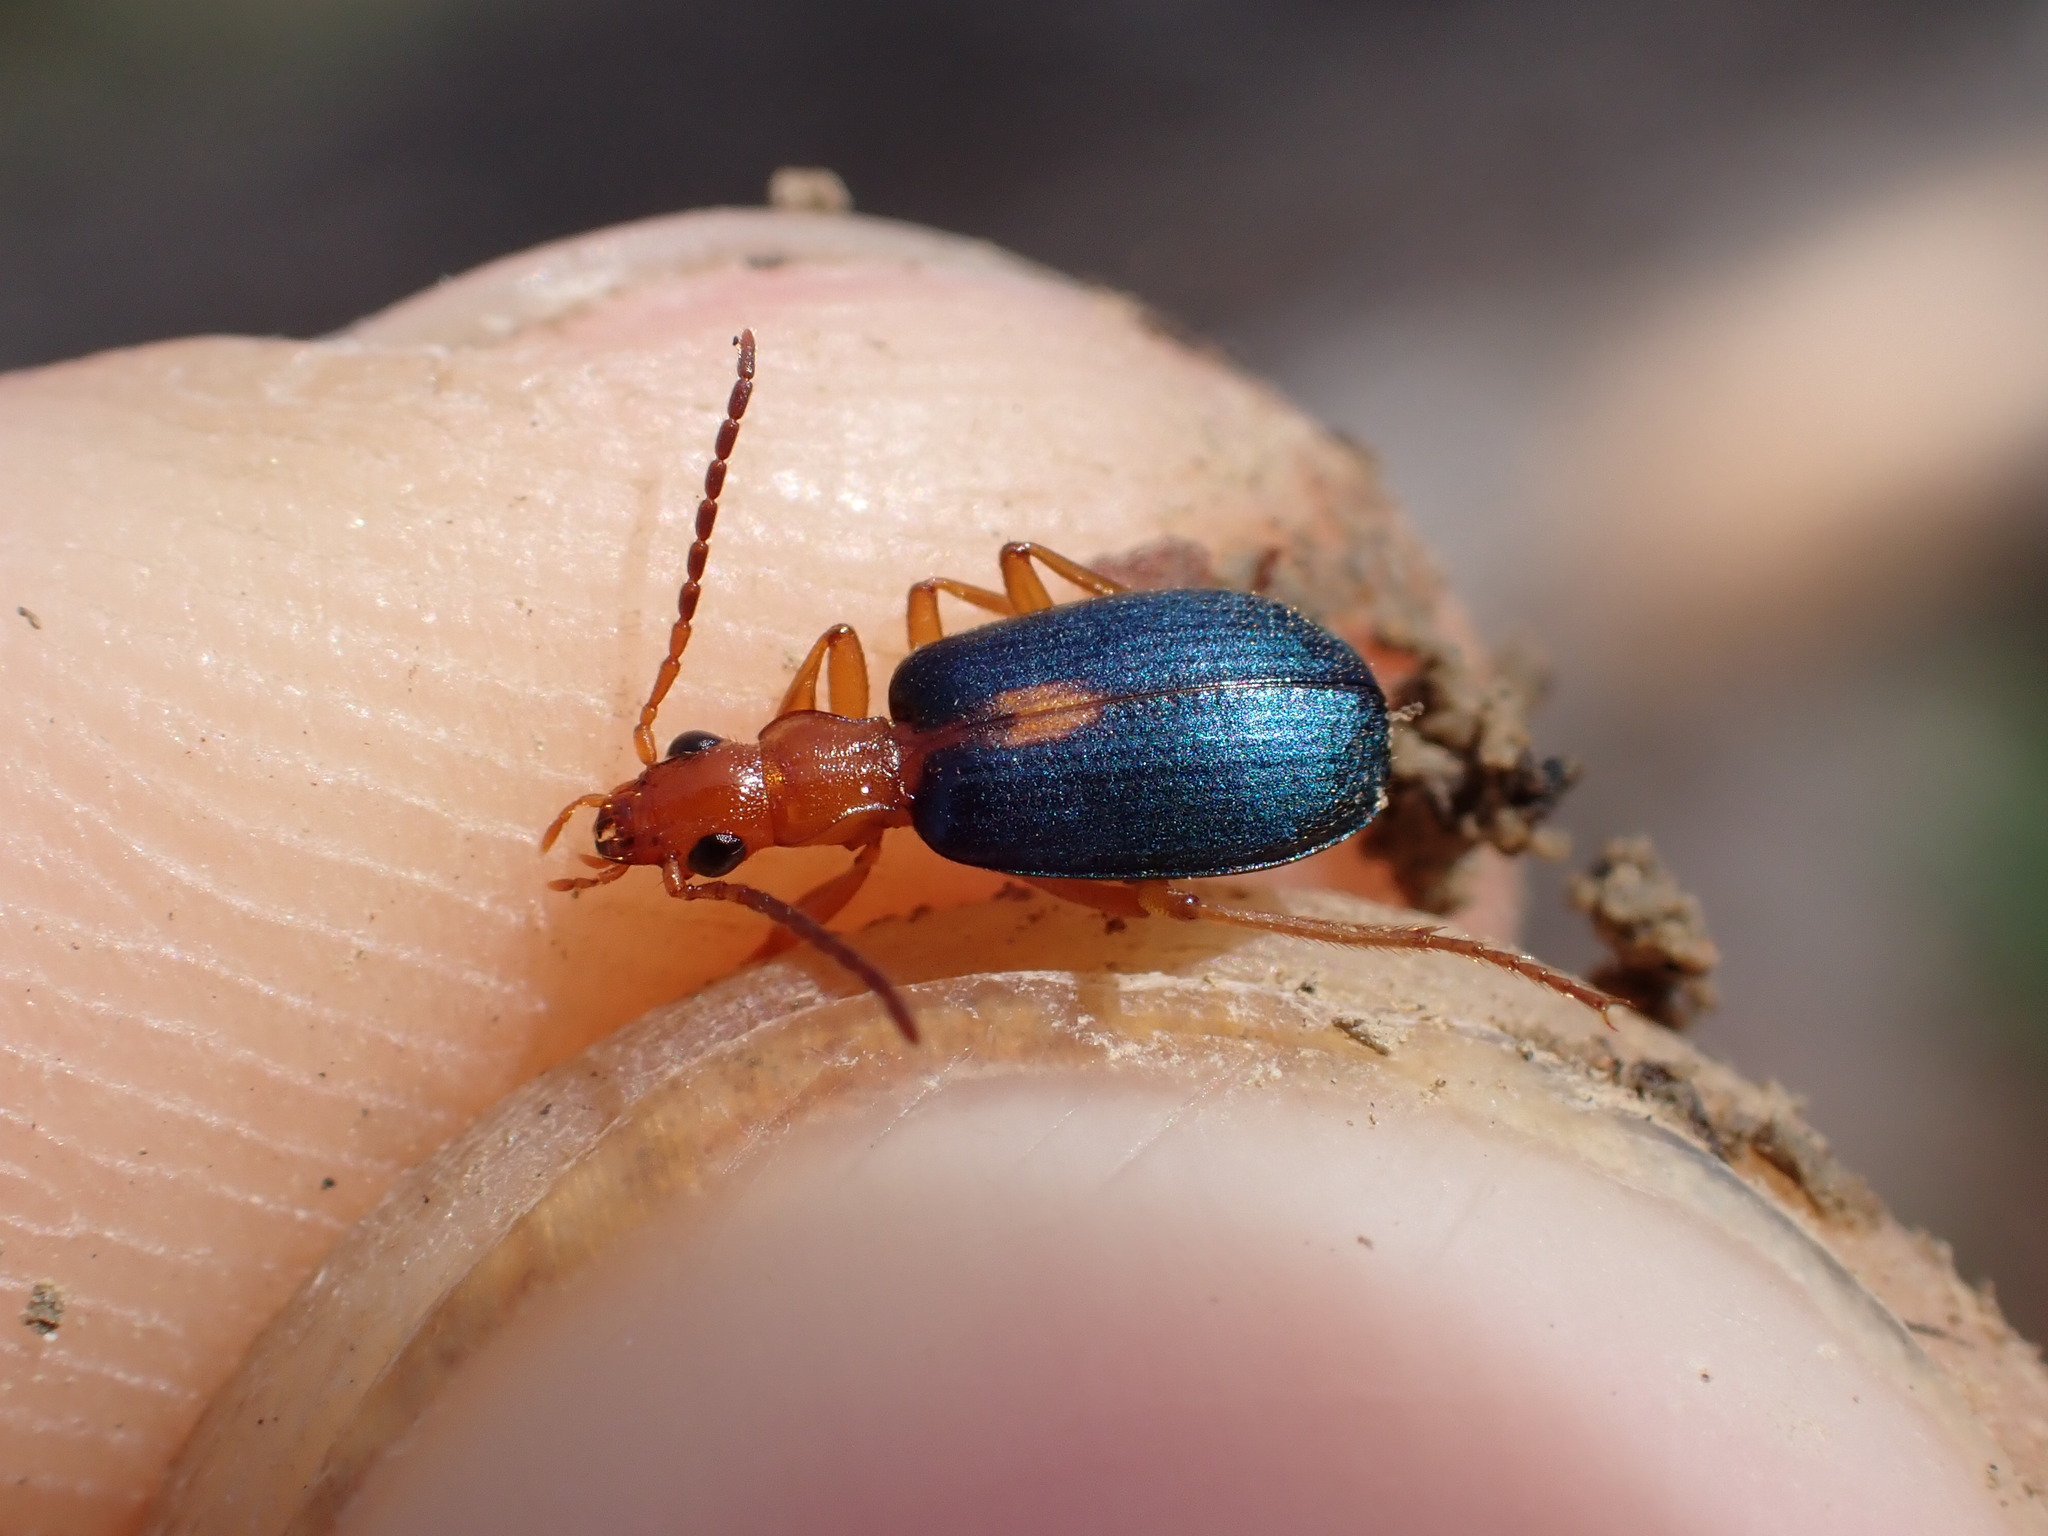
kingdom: Animalia
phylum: Arthropoda
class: Insecta
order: Coleoptera
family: Carabidae
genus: Brachinus
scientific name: Brachinus sclopeta
